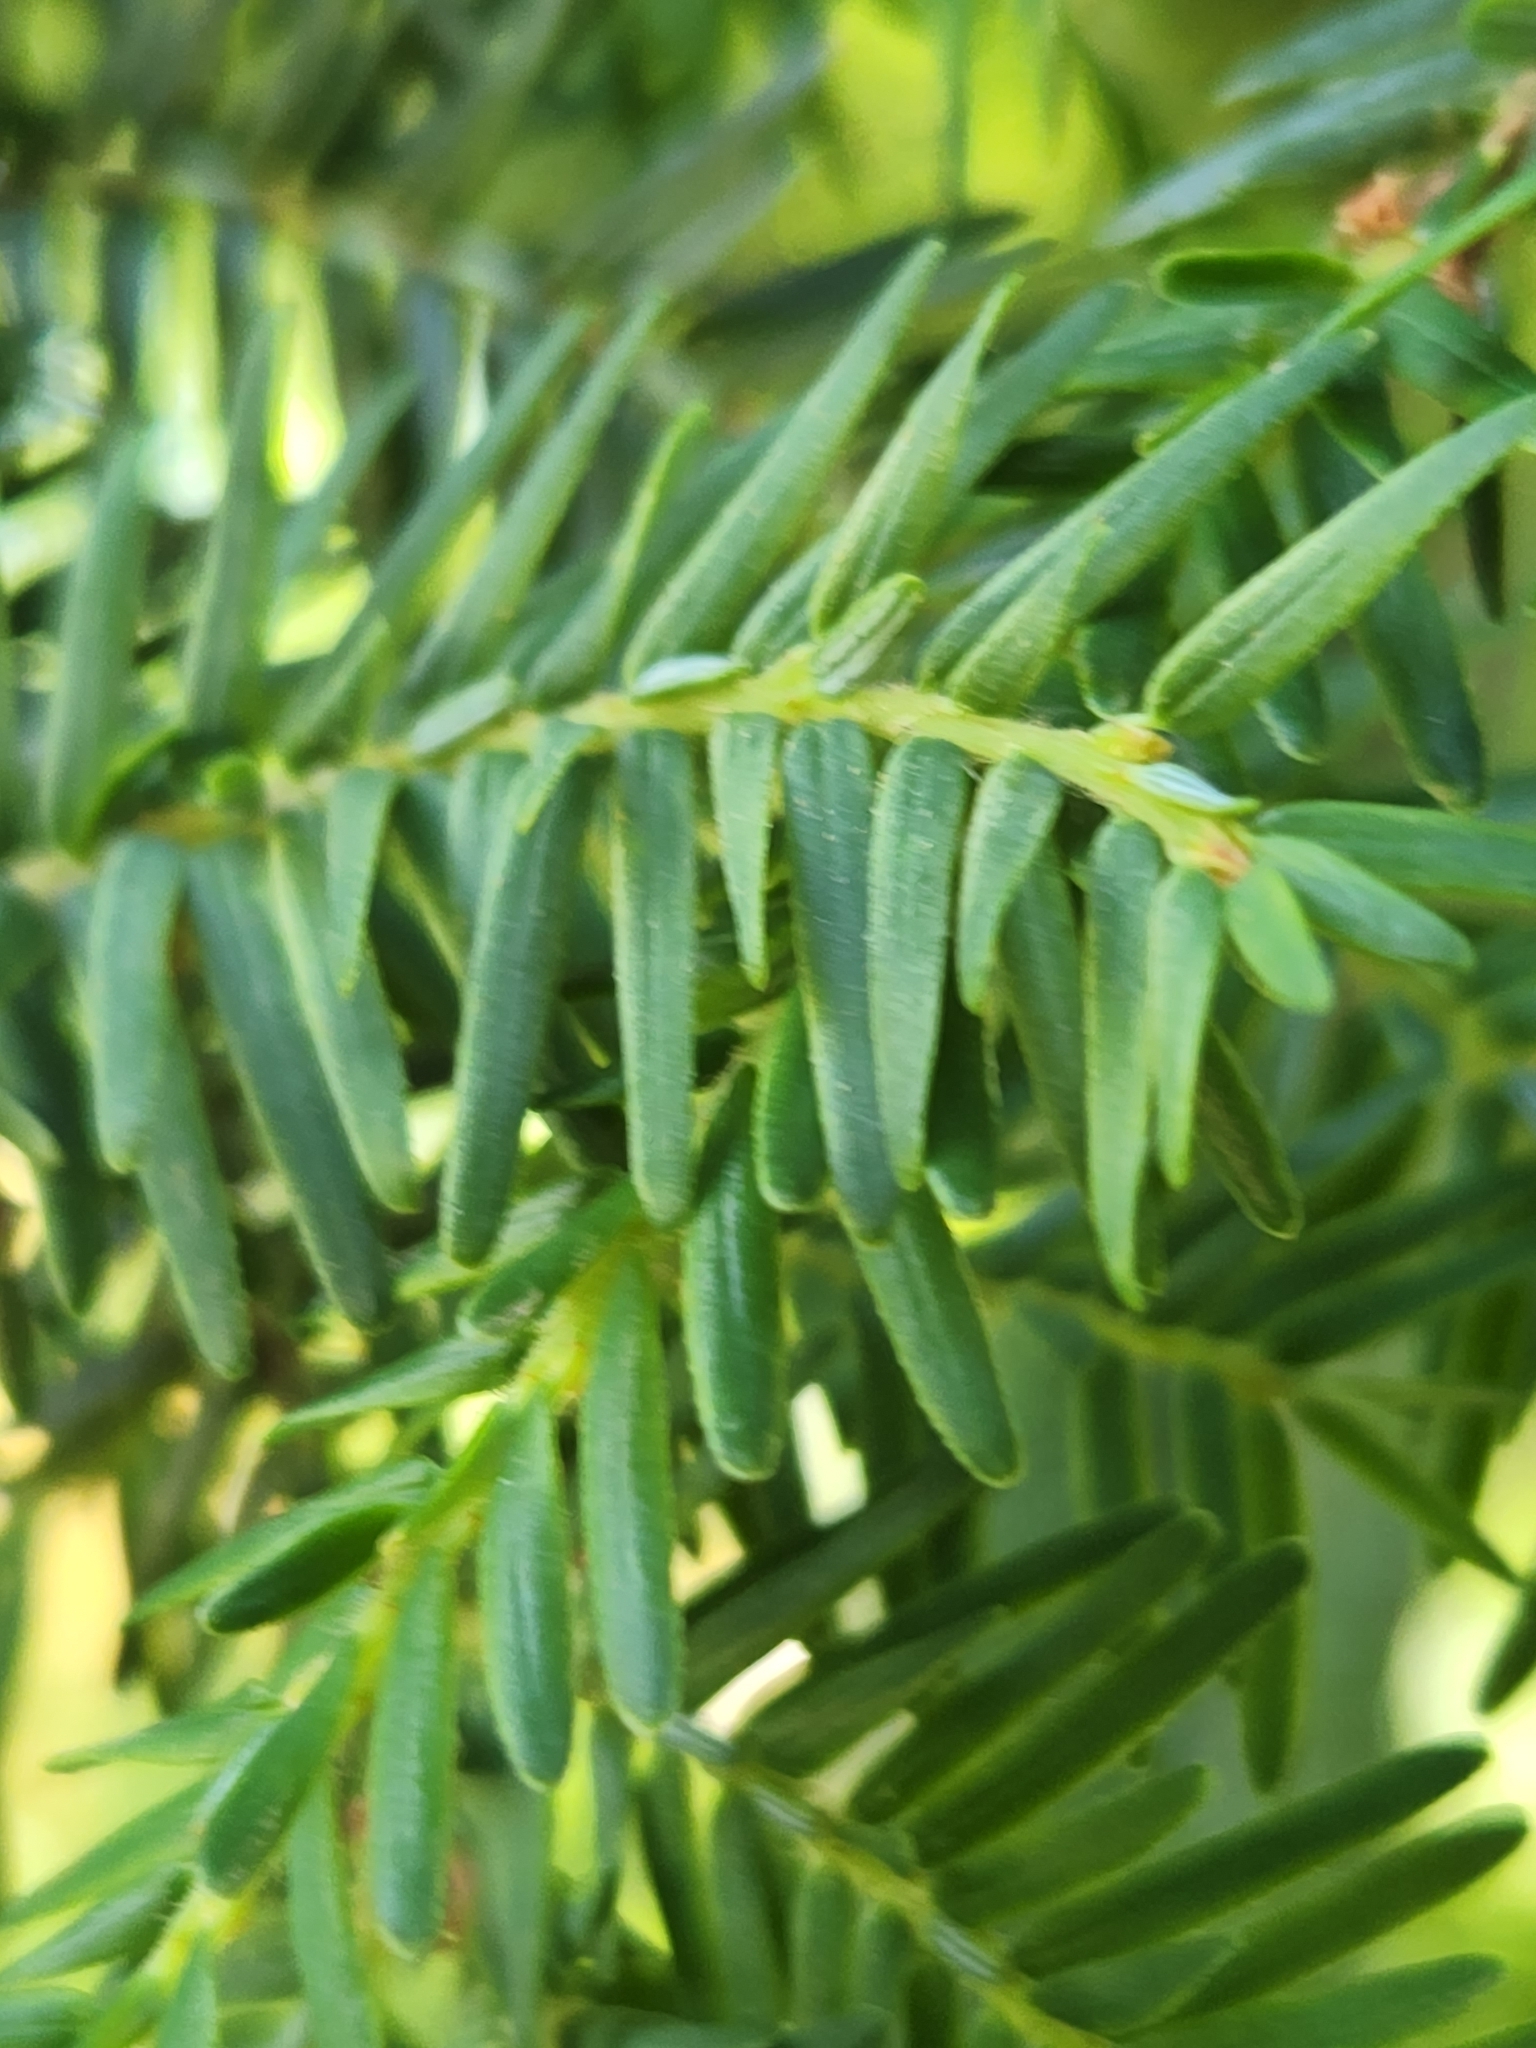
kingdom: Plantae
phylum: Tracheophyta
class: Pinopsida
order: Pinales
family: Pinaceae
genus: Tsuga
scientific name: Tsuga canadensis
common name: Eastern hemlock
